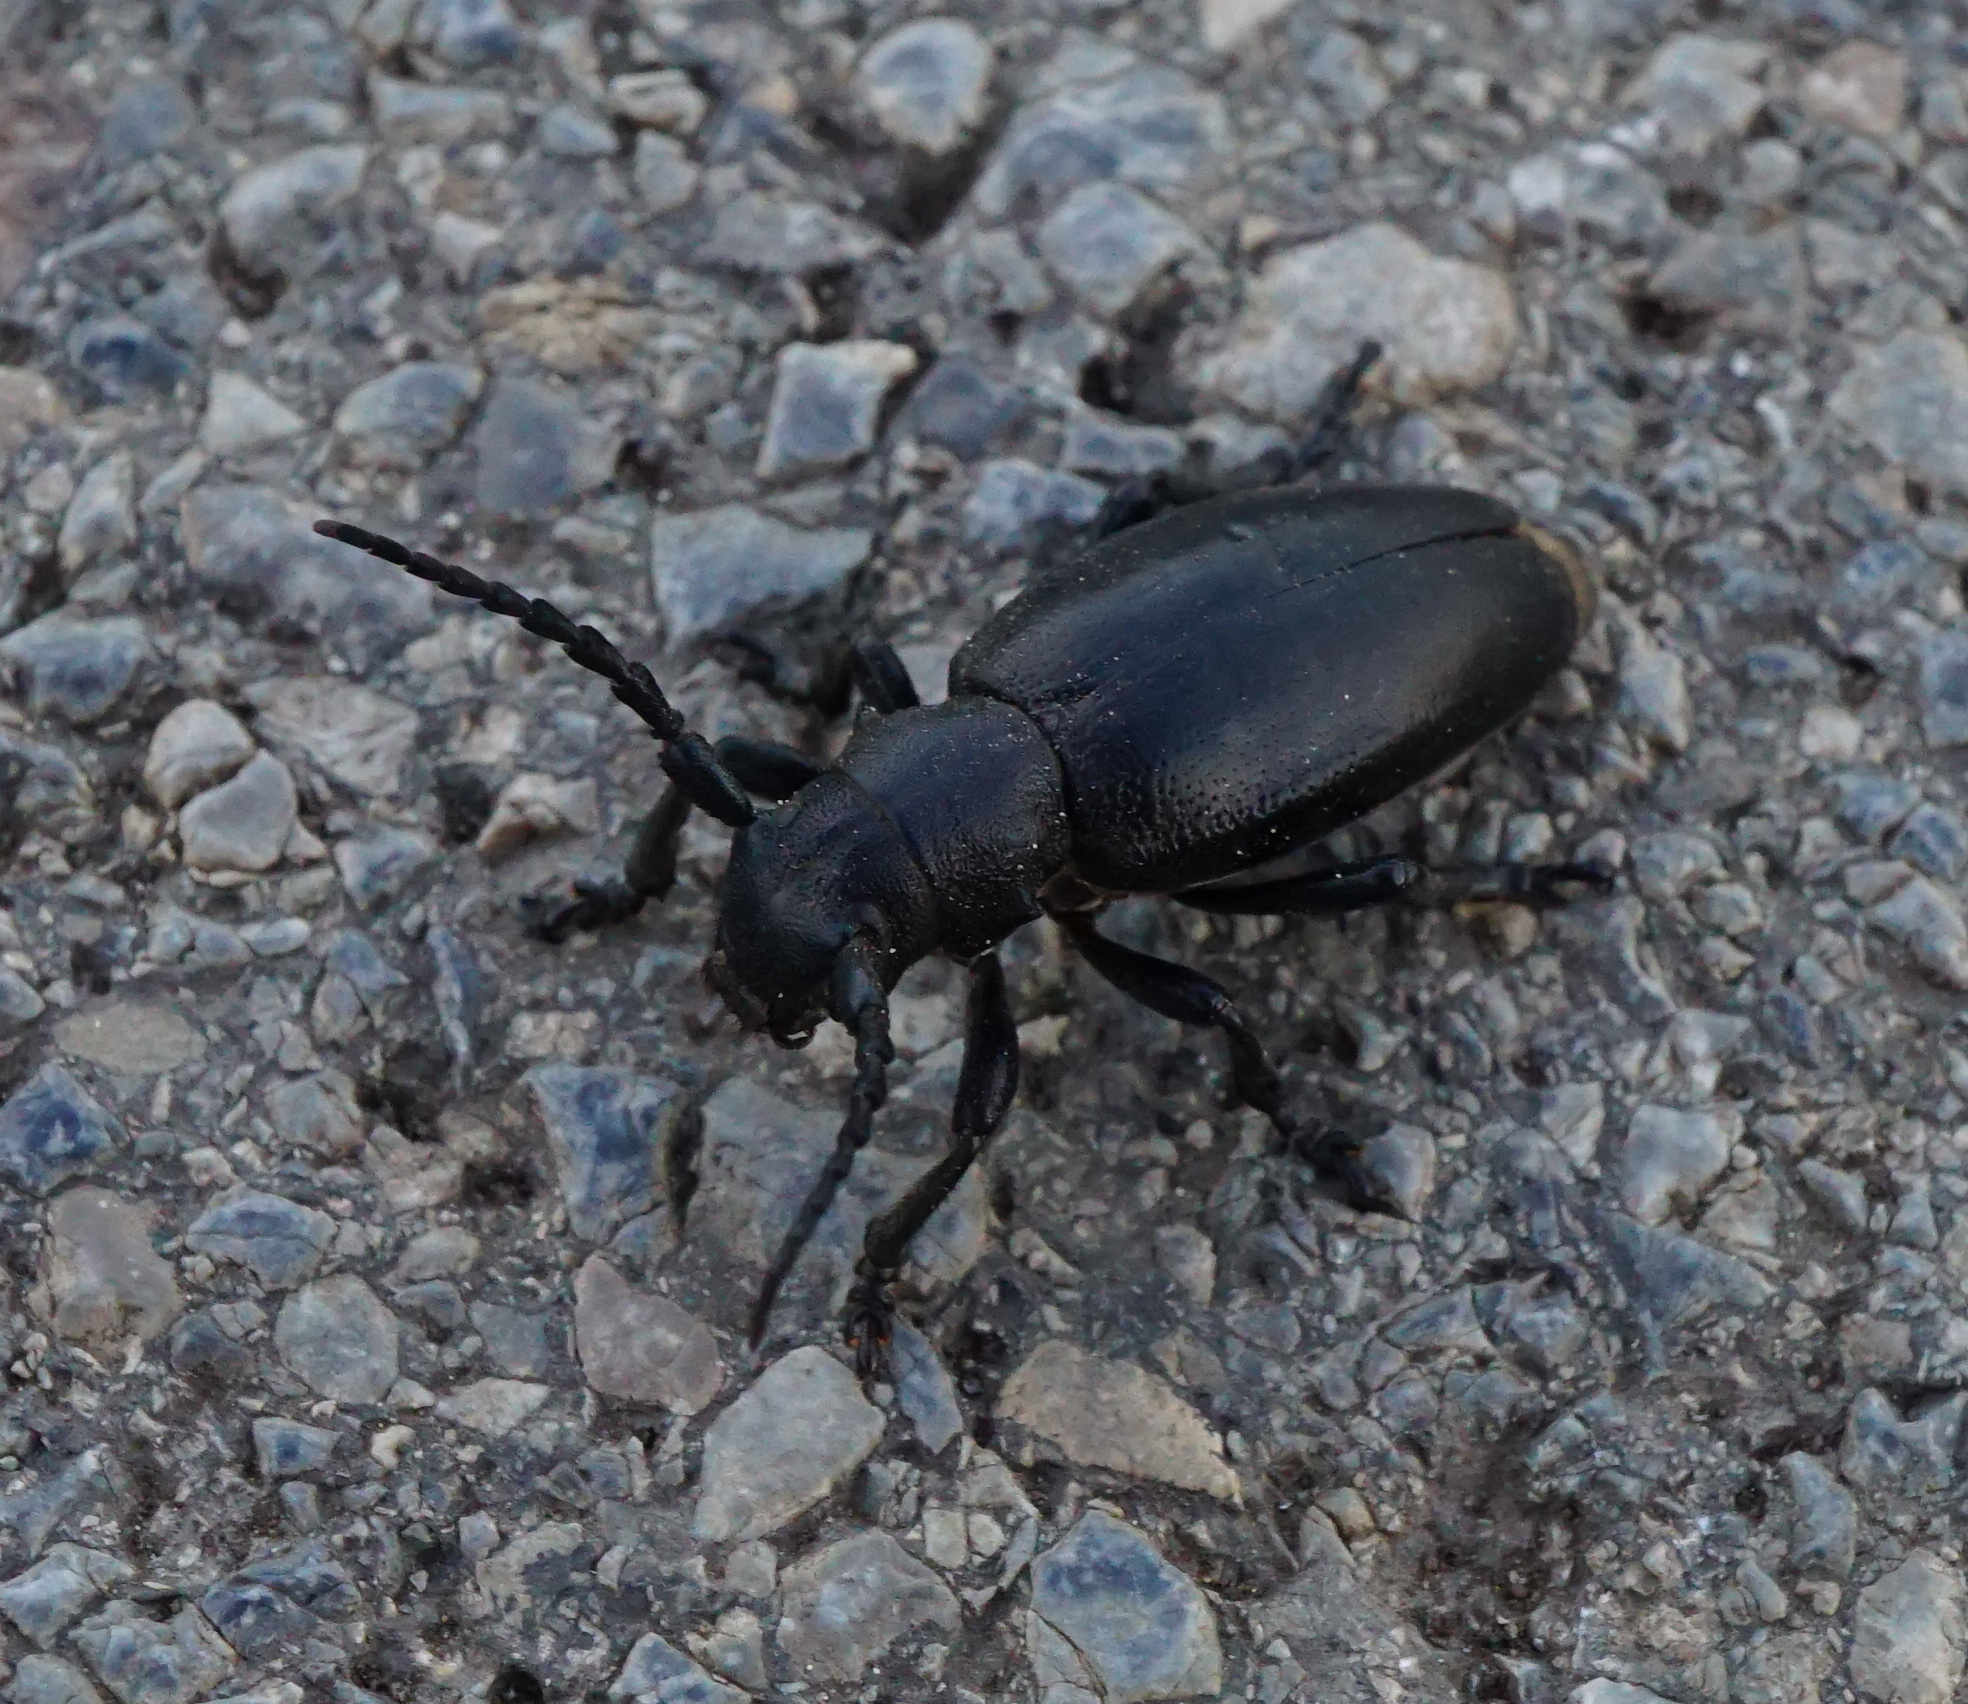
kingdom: Animalia
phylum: Arthropoda
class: Insecta
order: Coleoptera
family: Cerambycidae
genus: Dorcadion
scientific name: Dorcadion aethiops
